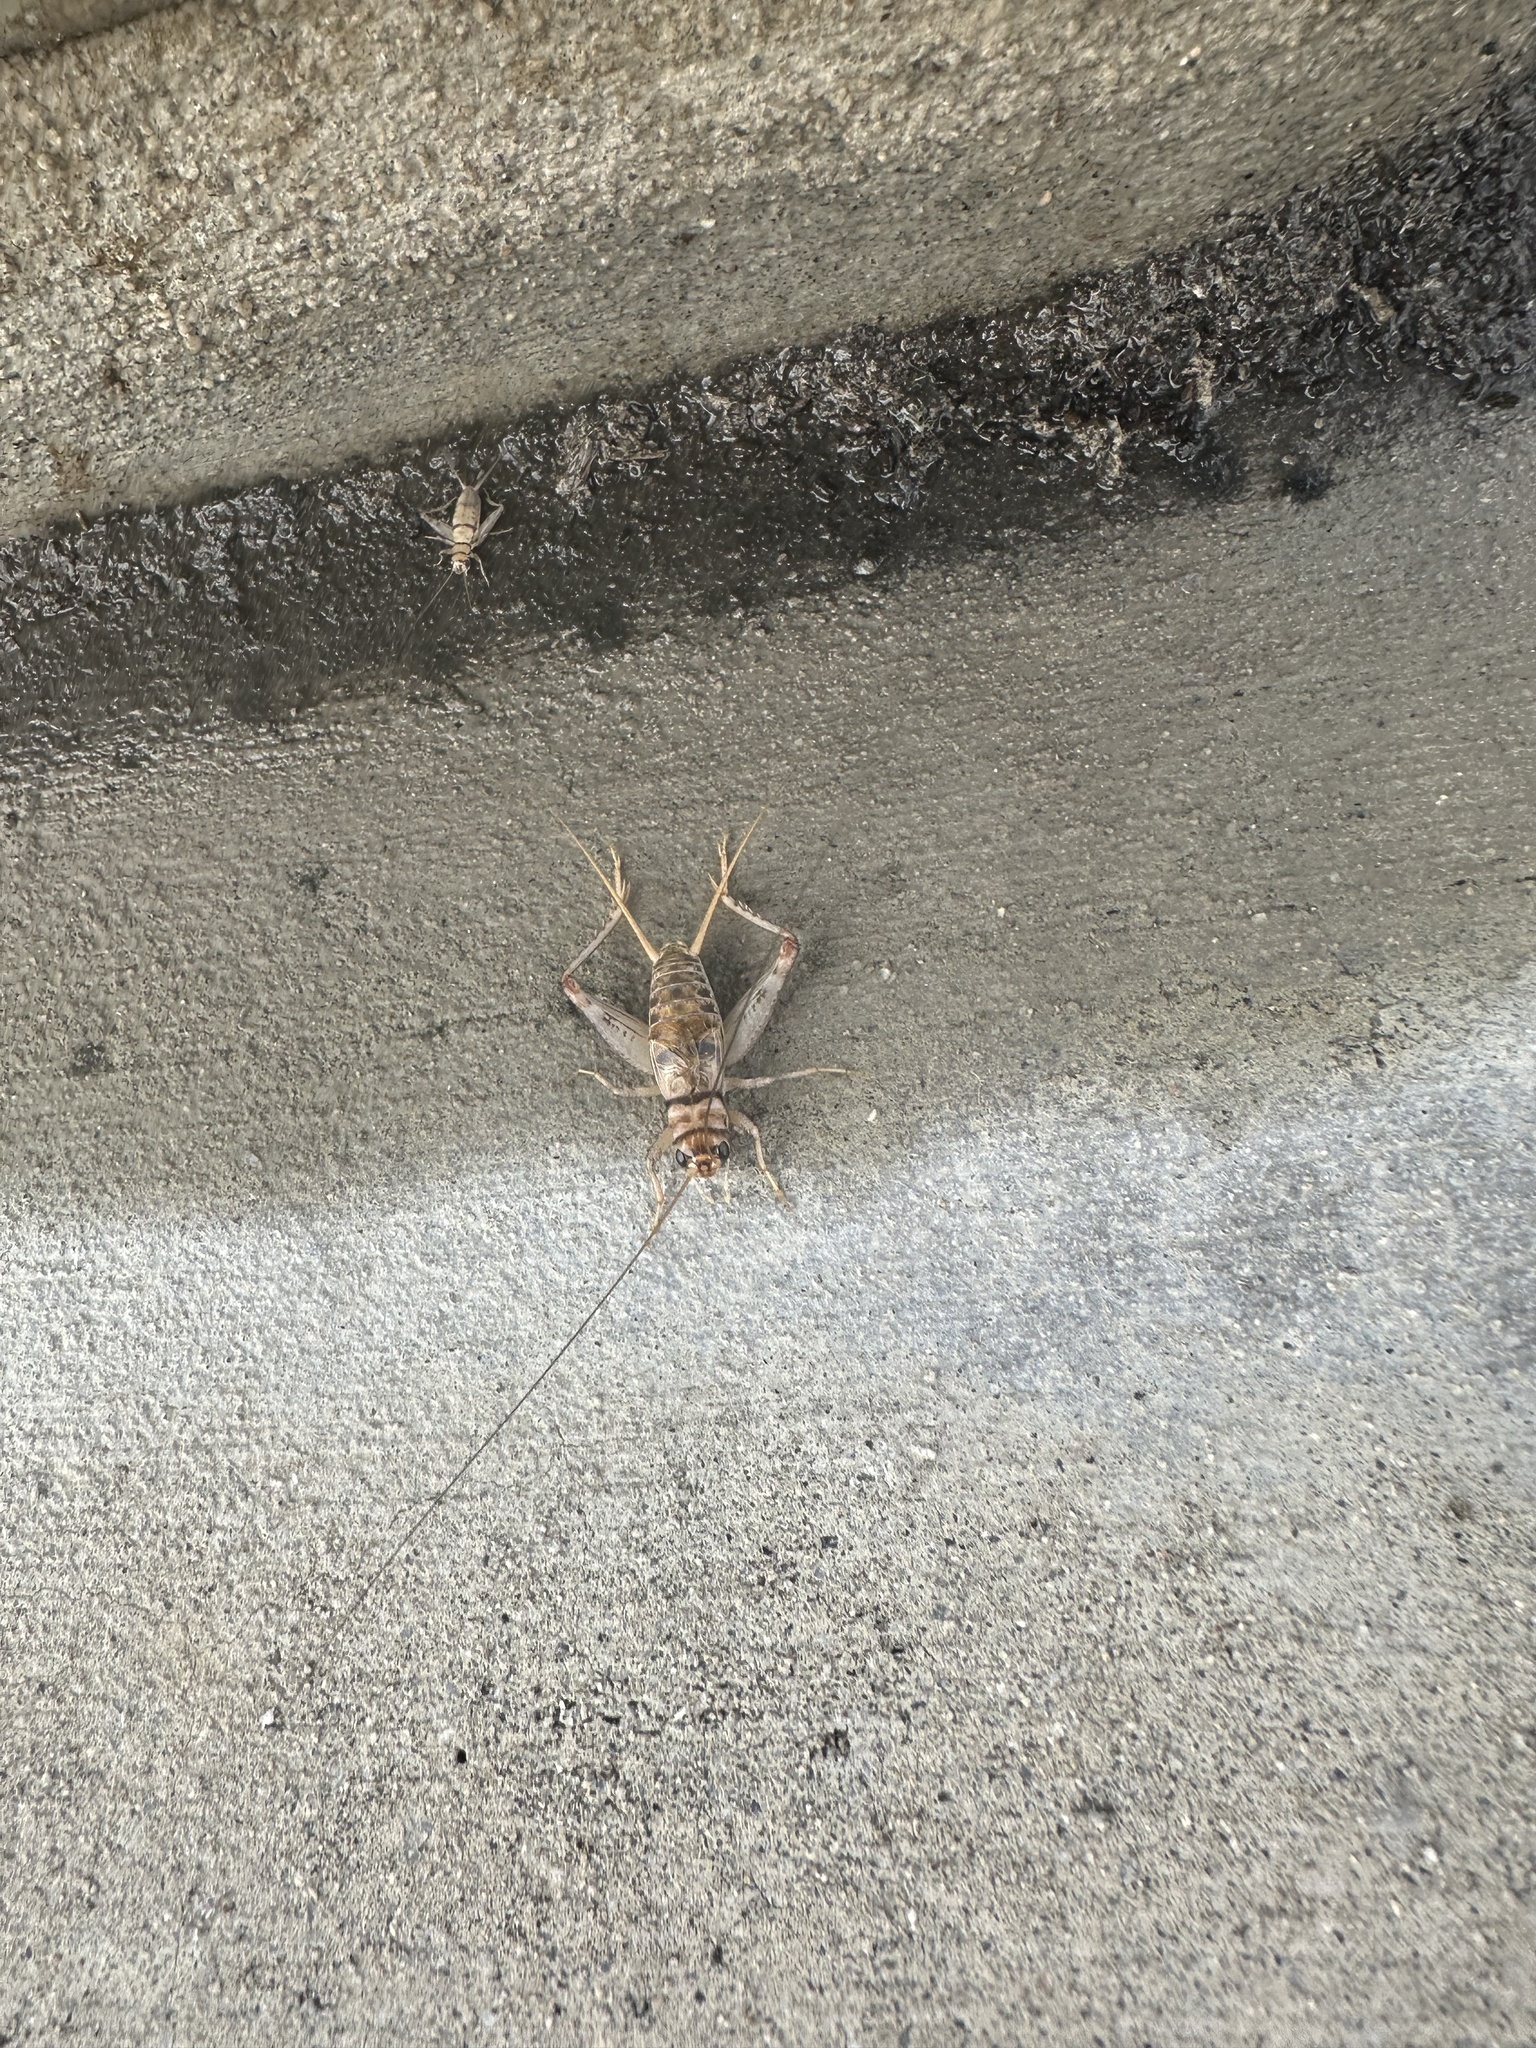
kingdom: Animalia
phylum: Arthropoda
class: Insecta
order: Orthoptera
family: Gryllidae
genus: Gryllodes
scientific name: Gryllodes sigillatus
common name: Tropical house cricket
